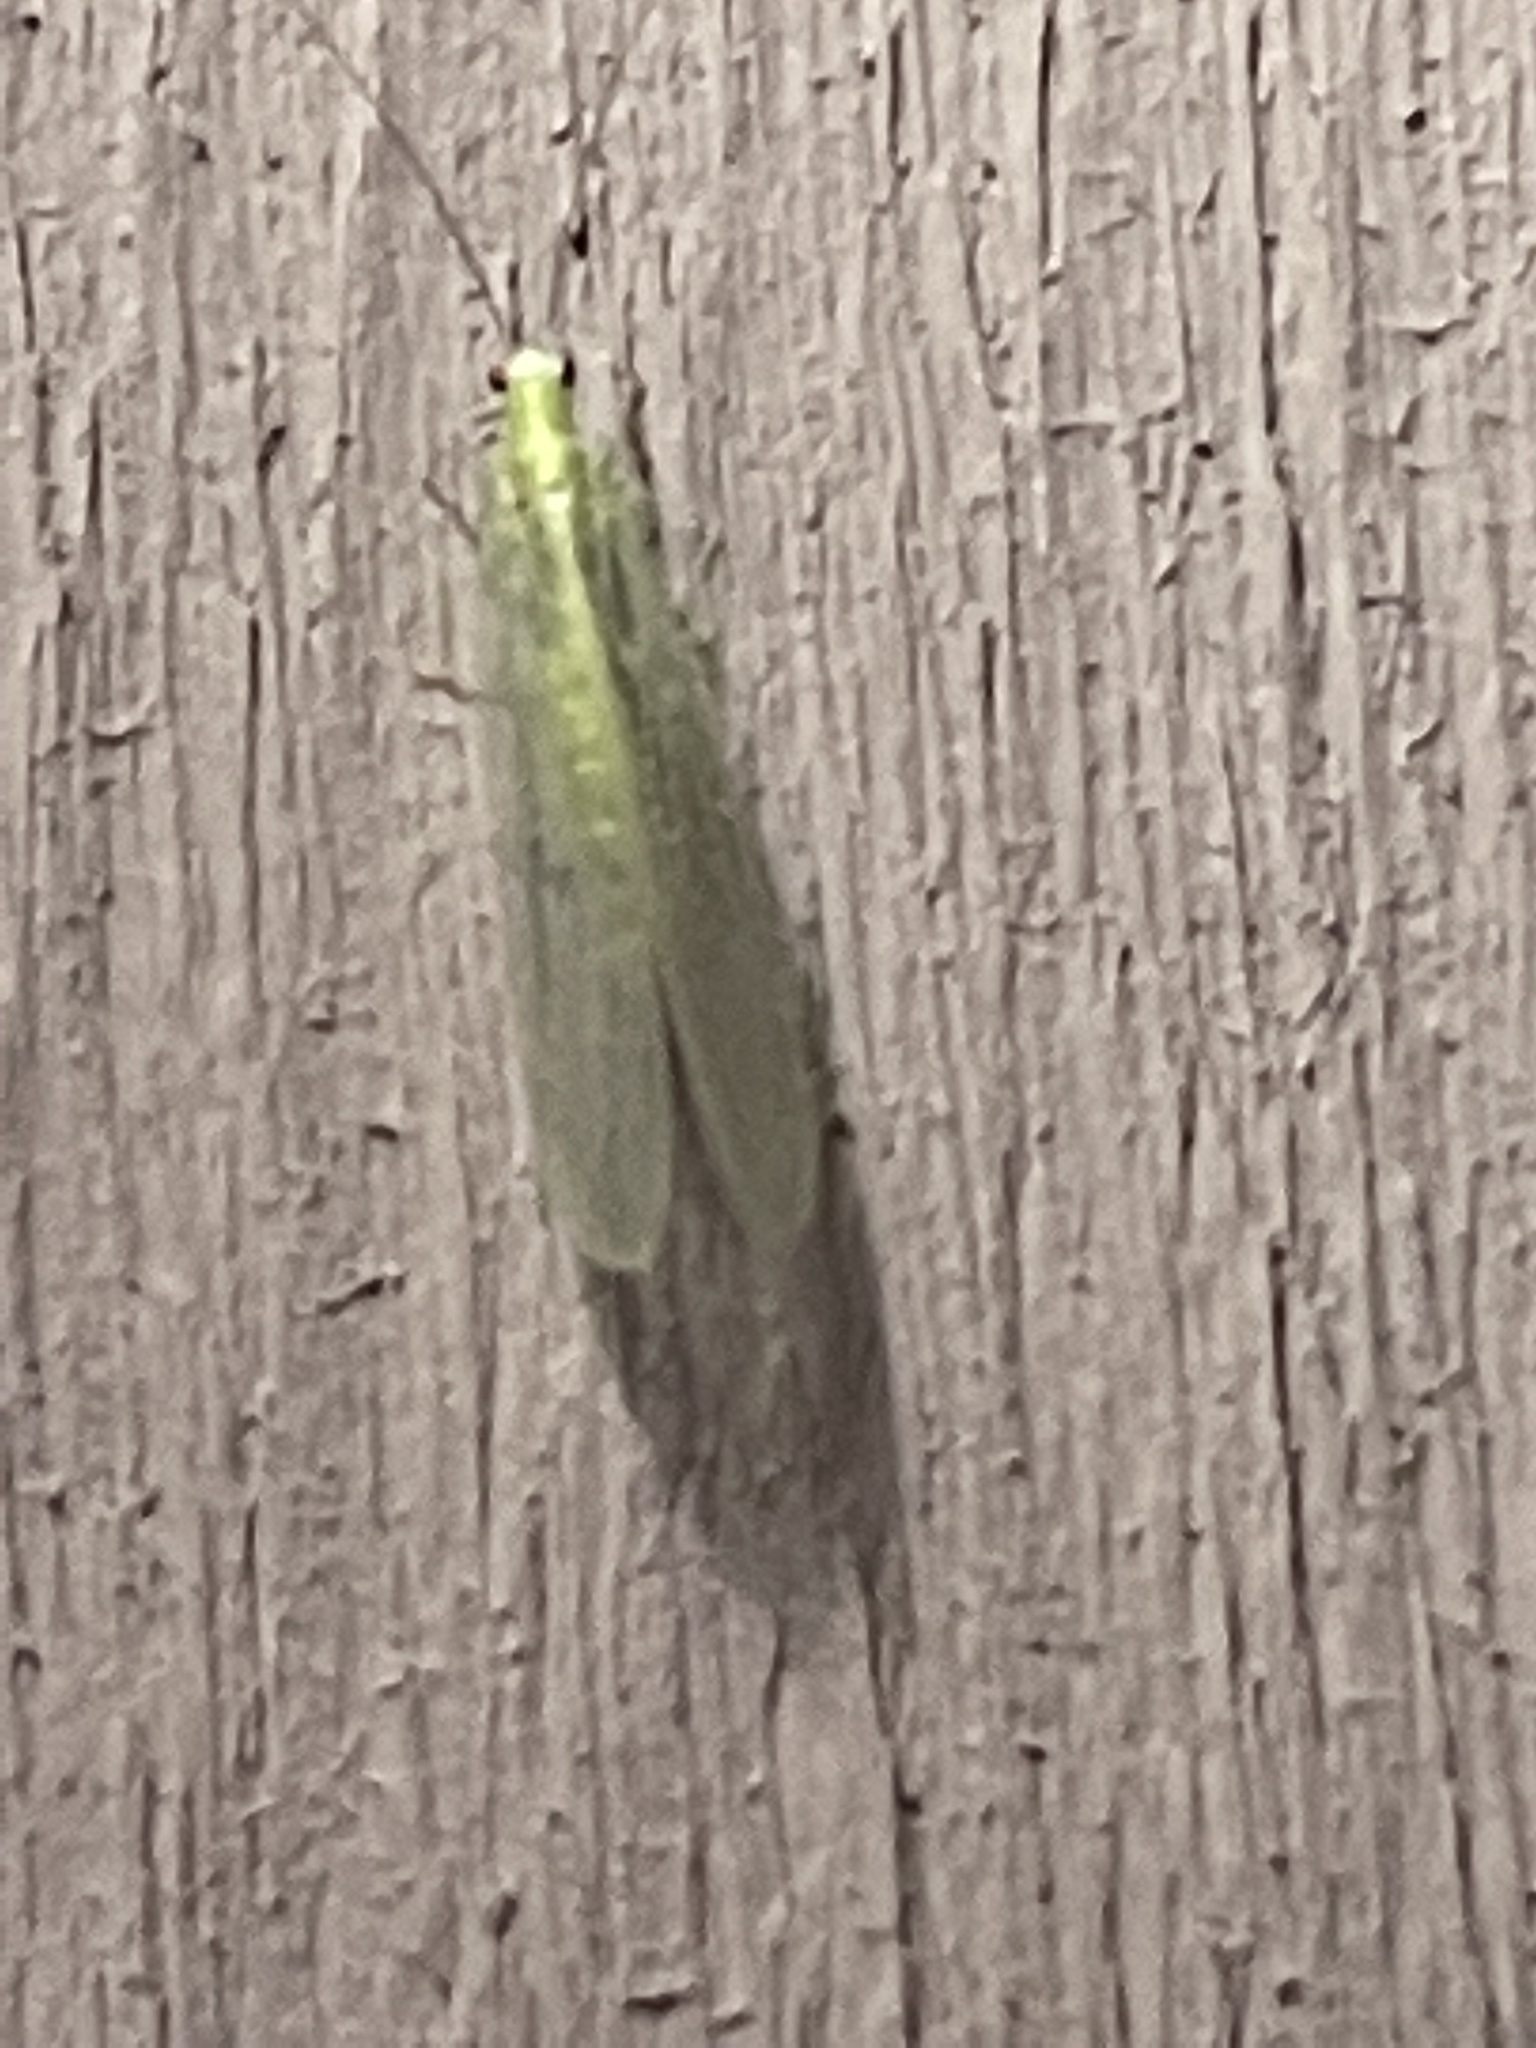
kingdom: Animalia
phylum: Arthropoda
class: Insecta
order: Neuroptera
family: Chrysopidae
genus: Chrysopa
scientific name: Chrysopa nigricornis
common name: Black-horned green lacewing
